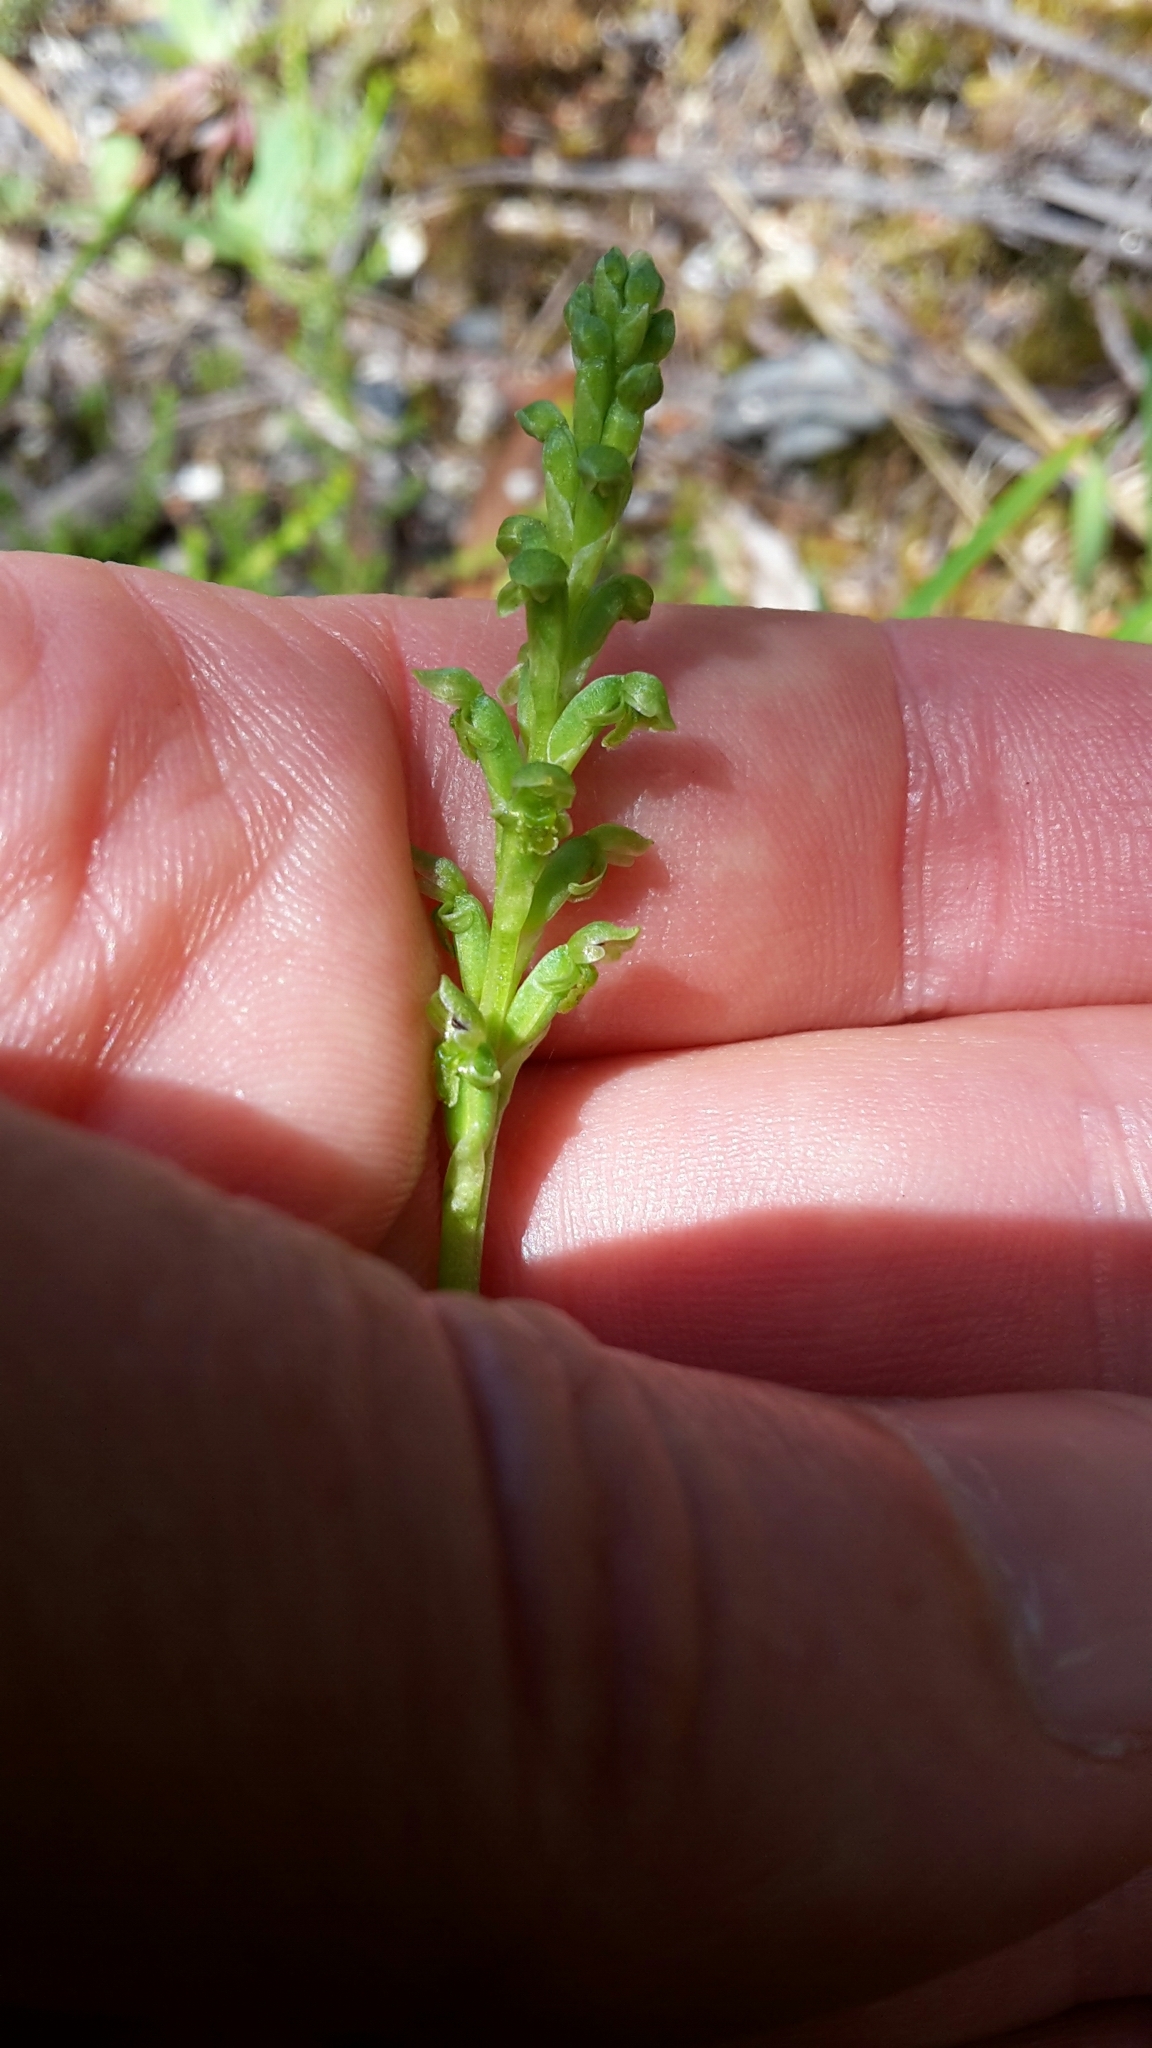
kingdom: Plantae
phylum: Tracheophyta
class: Liliopsida
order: Asparagales
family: Orchidaceae
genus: Microtis
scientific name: Microtis unifolia
